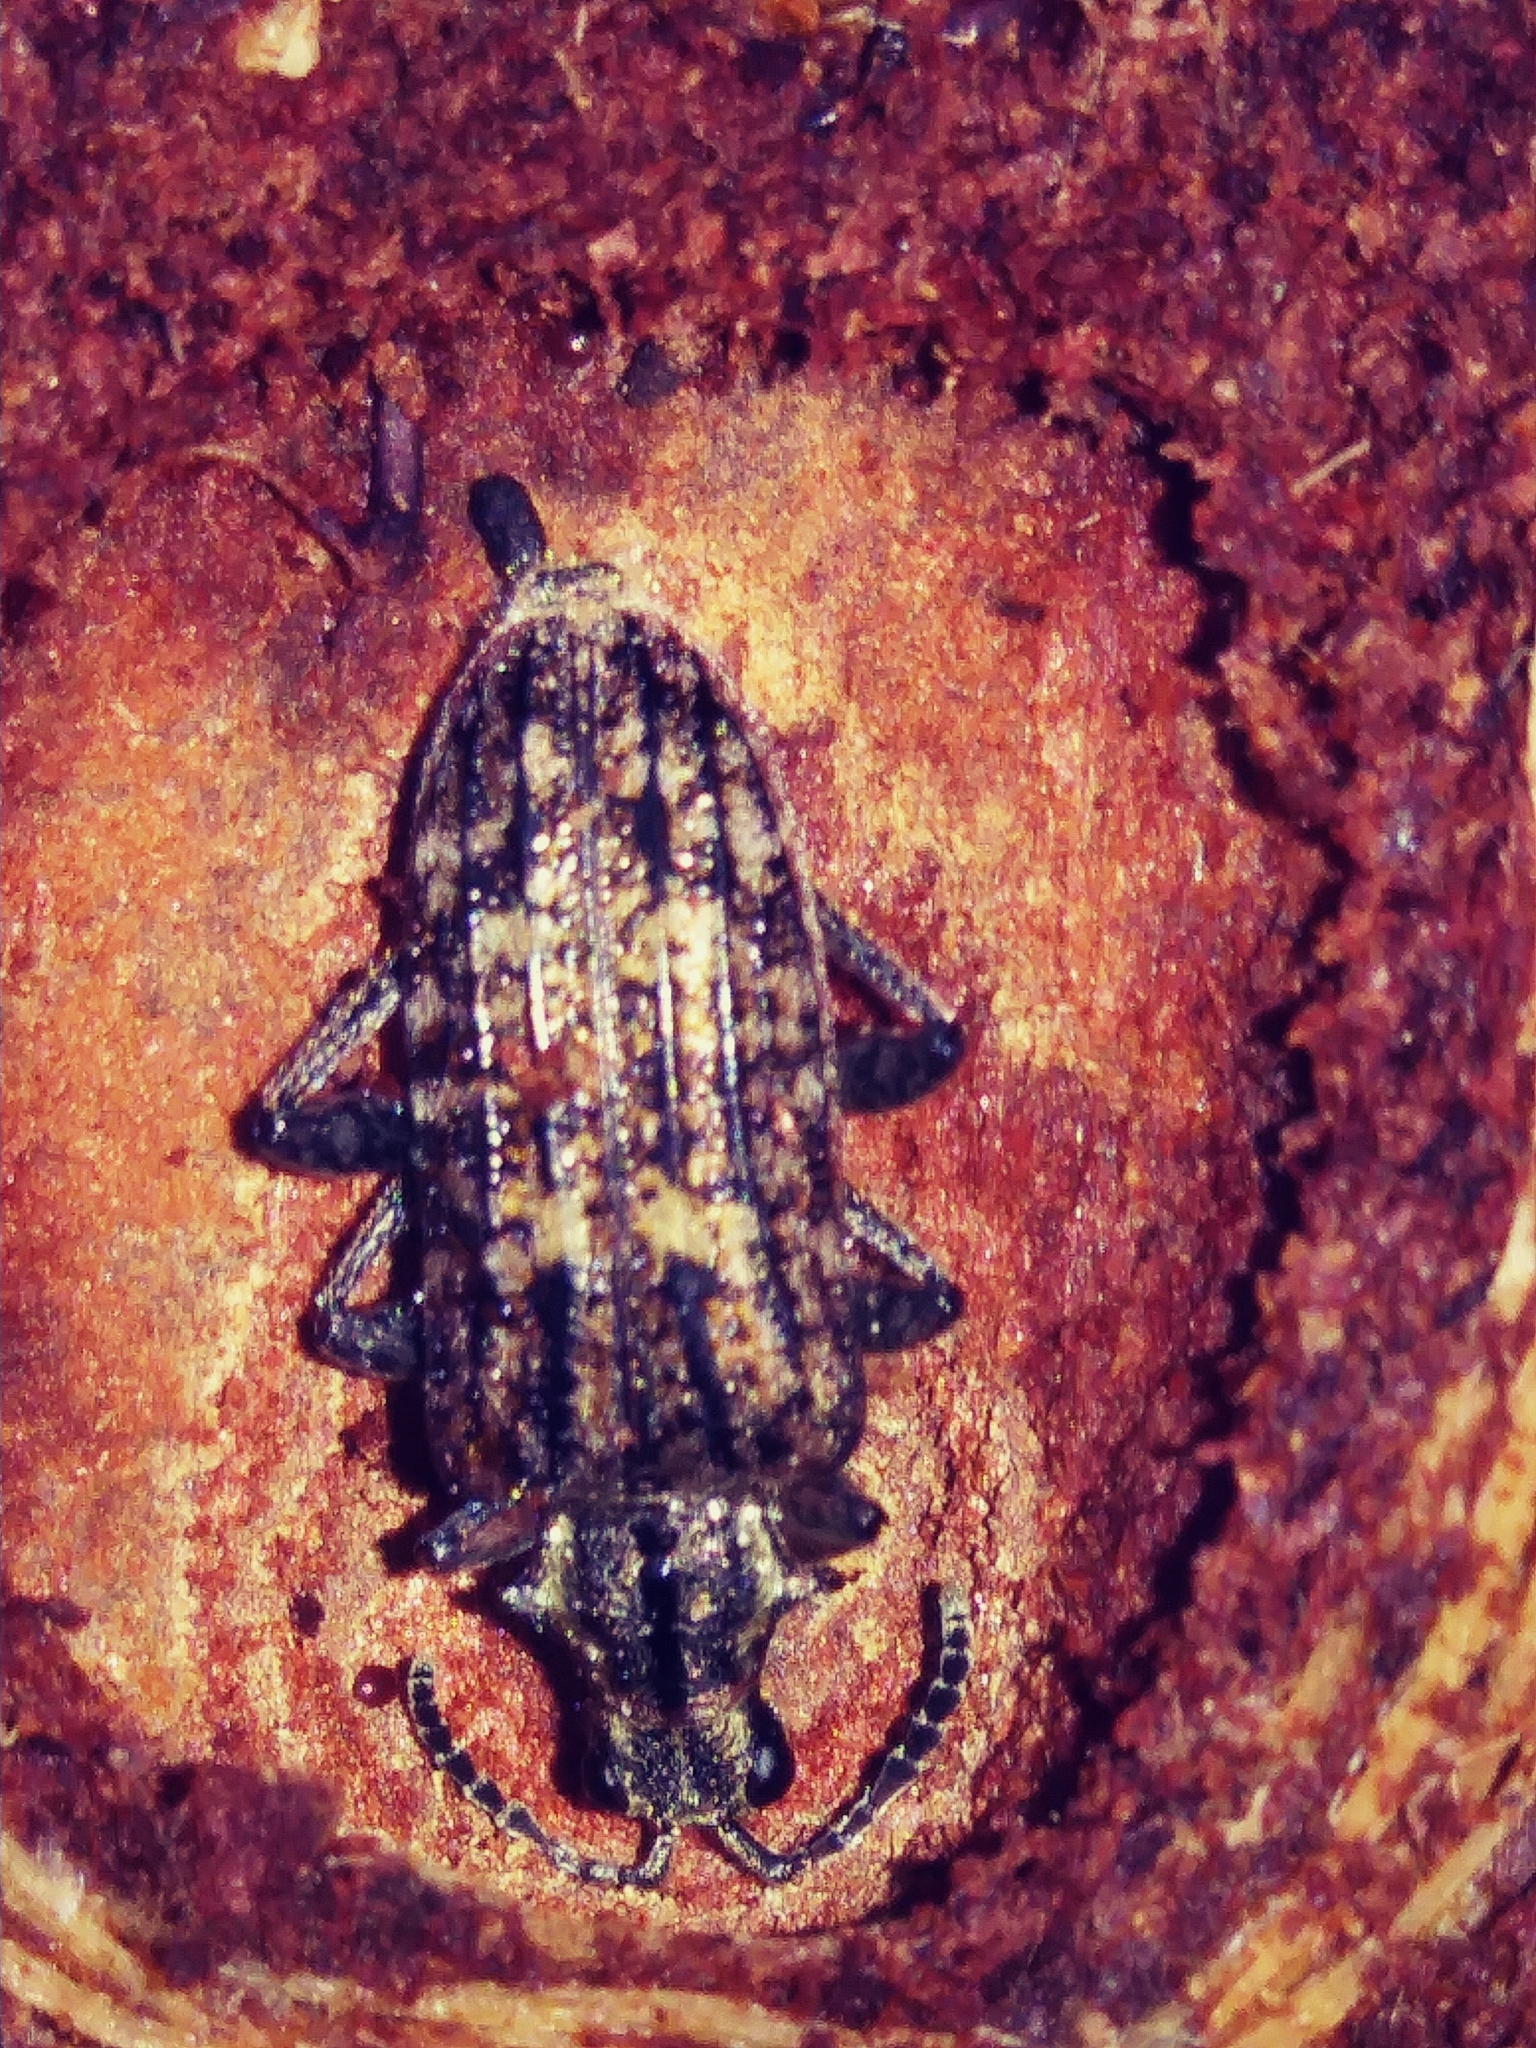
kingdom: Animalia
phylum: Arthropoda
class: Insecta
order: Coleoptera
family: Cerambycidae
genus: Rhagium
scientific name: Rhagium inquisitor
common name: Ribbed pine borer
